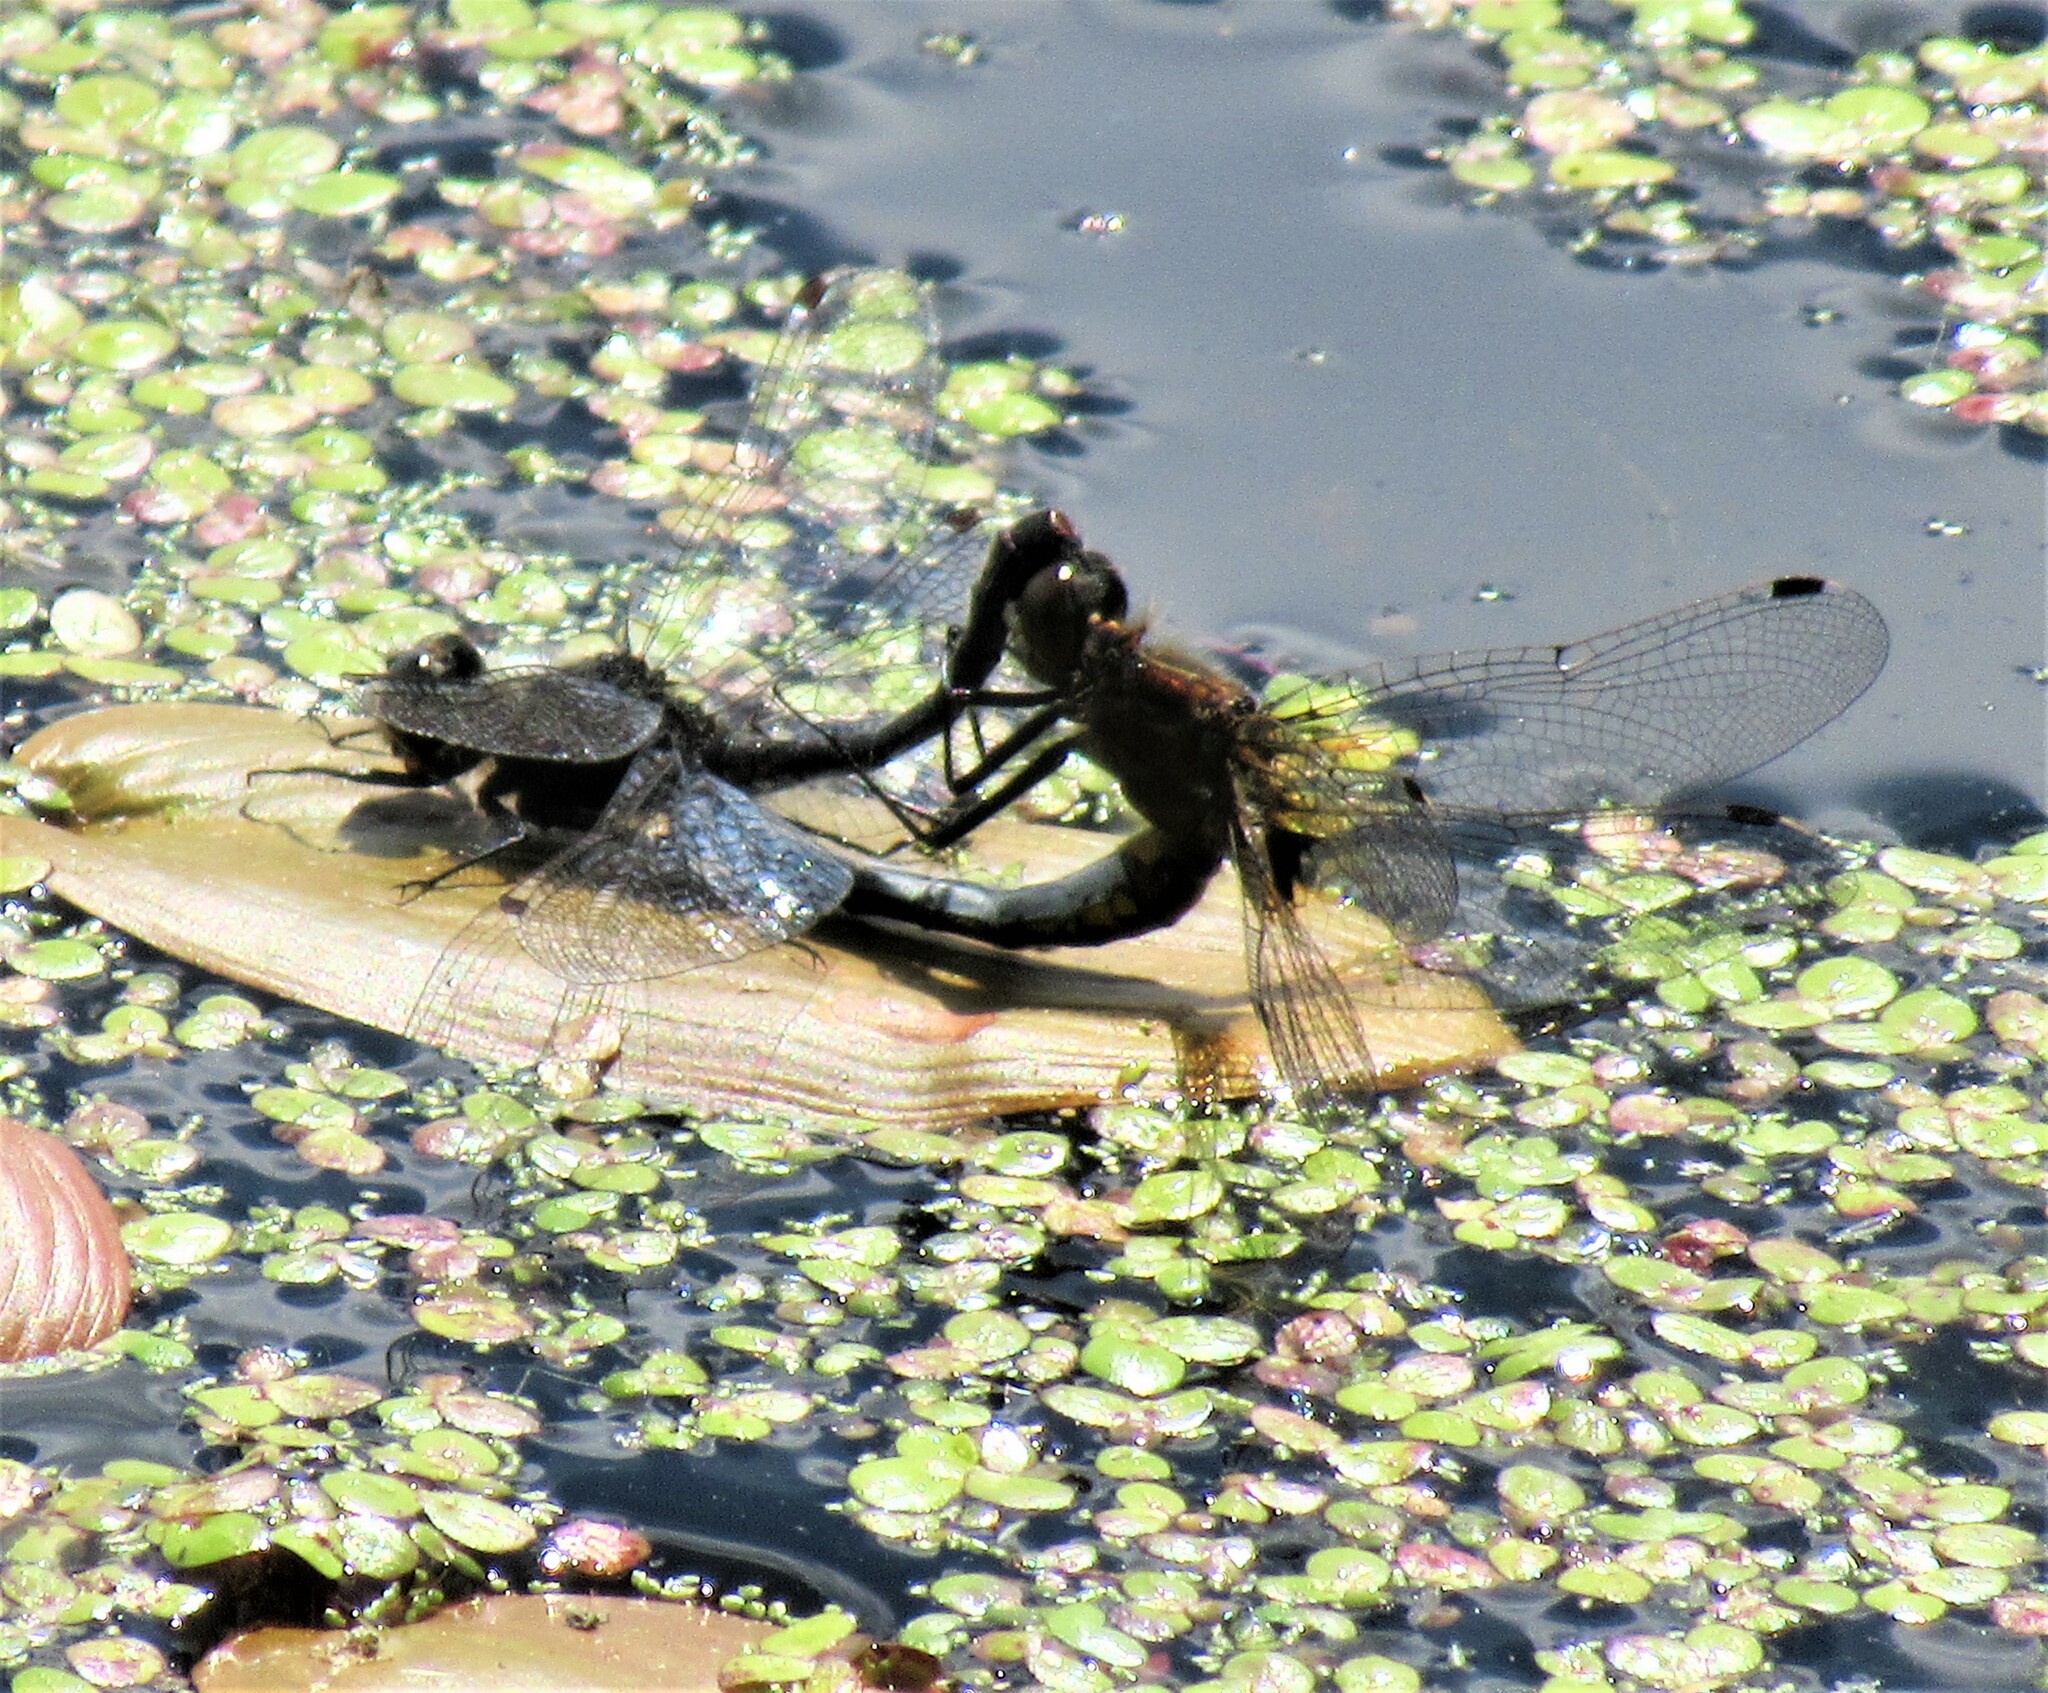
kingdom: Animalia
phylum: Arthropoda
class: Insecta
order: Odonata
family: Libellulidae
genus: Leucorrhinia
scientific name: Leucorrhinia intacta
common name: Dot-tailed whiteface
